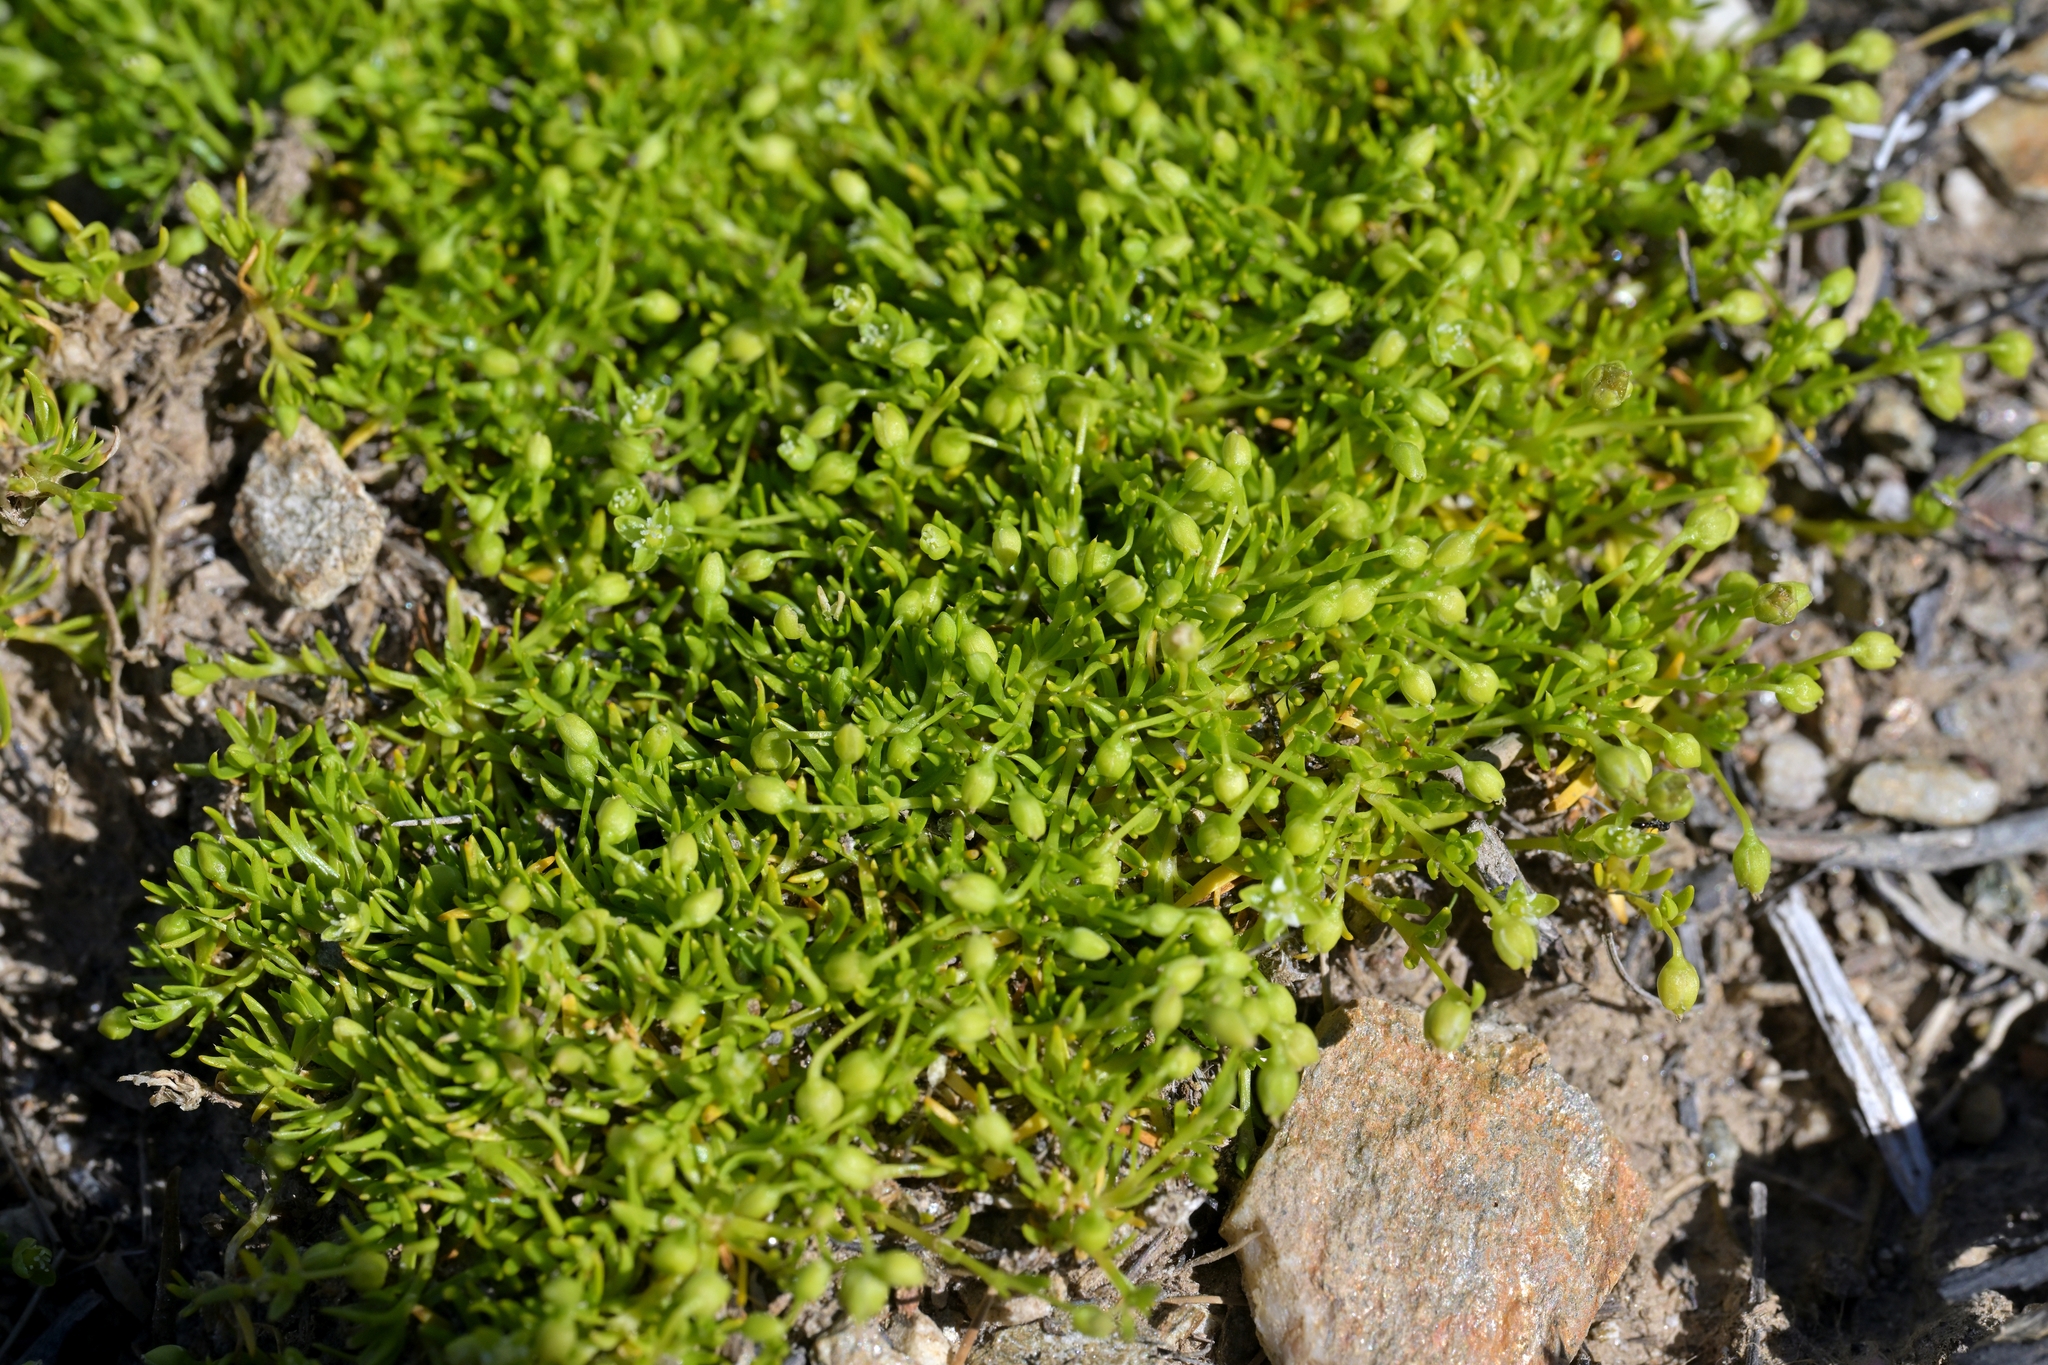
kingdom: Plantae
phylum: Tracheophyta
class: Magnoliopsida
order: Caryophyllales
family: Caryophyllaceae
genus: Sagina
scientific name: Sagina procumbens
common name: Procumbent pearlwort
